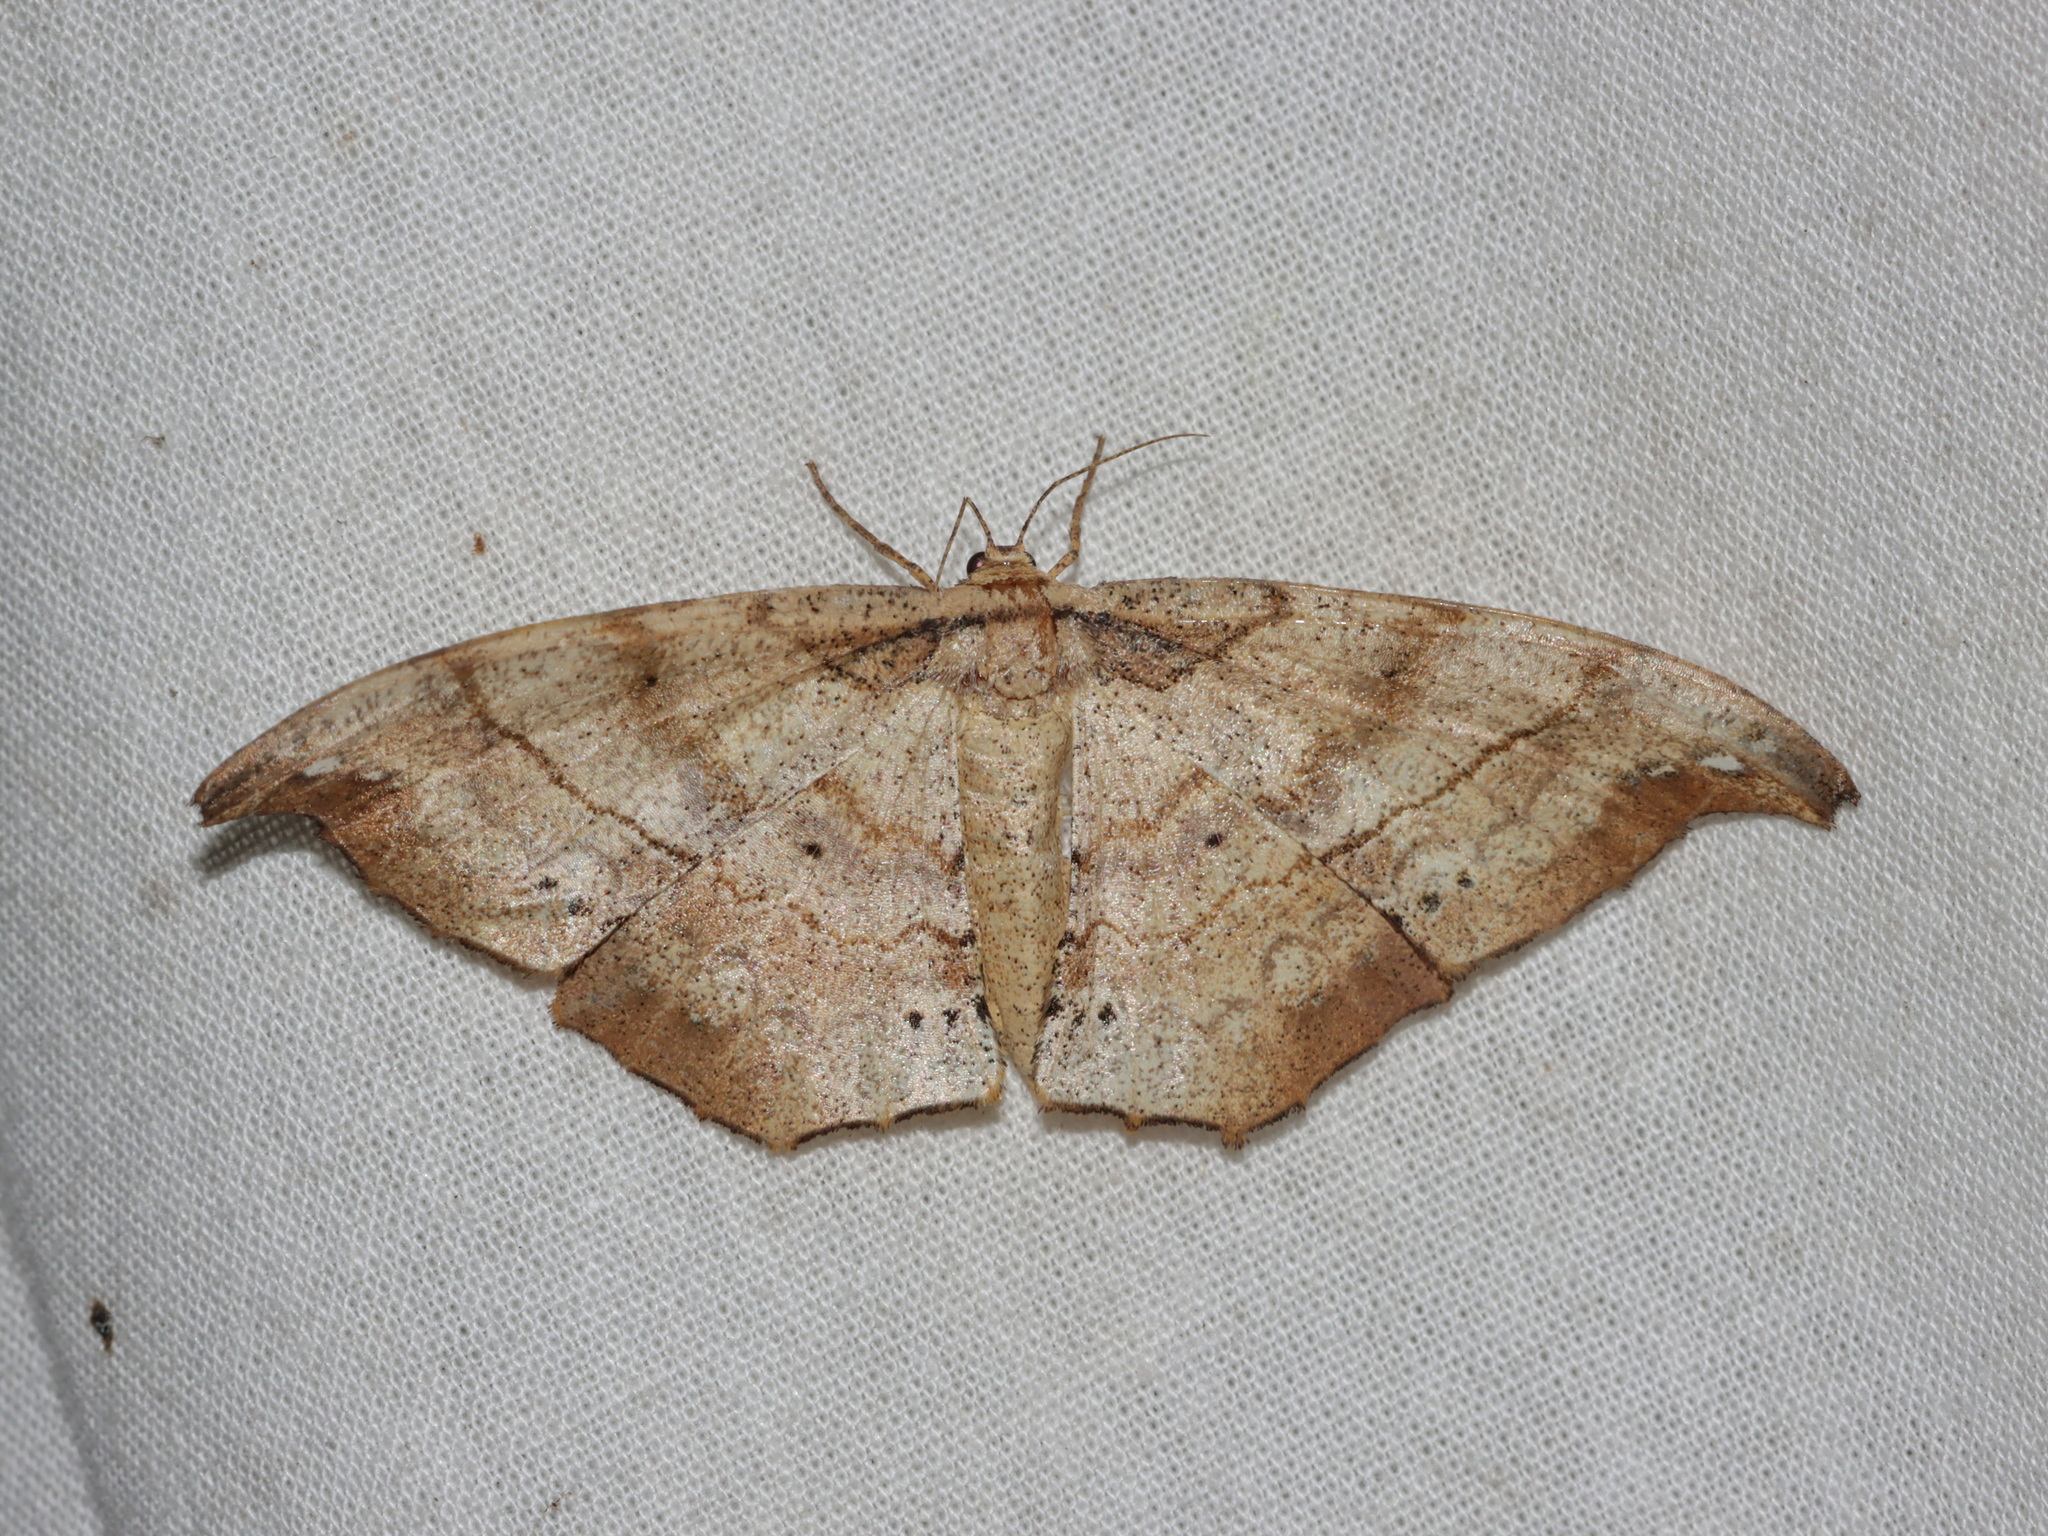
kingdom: Animalia
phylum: Arthropoda
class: Insecta
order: Lepidoptera
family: Geometridae
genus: Hyposidra
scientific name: Hyposidra infixaria
